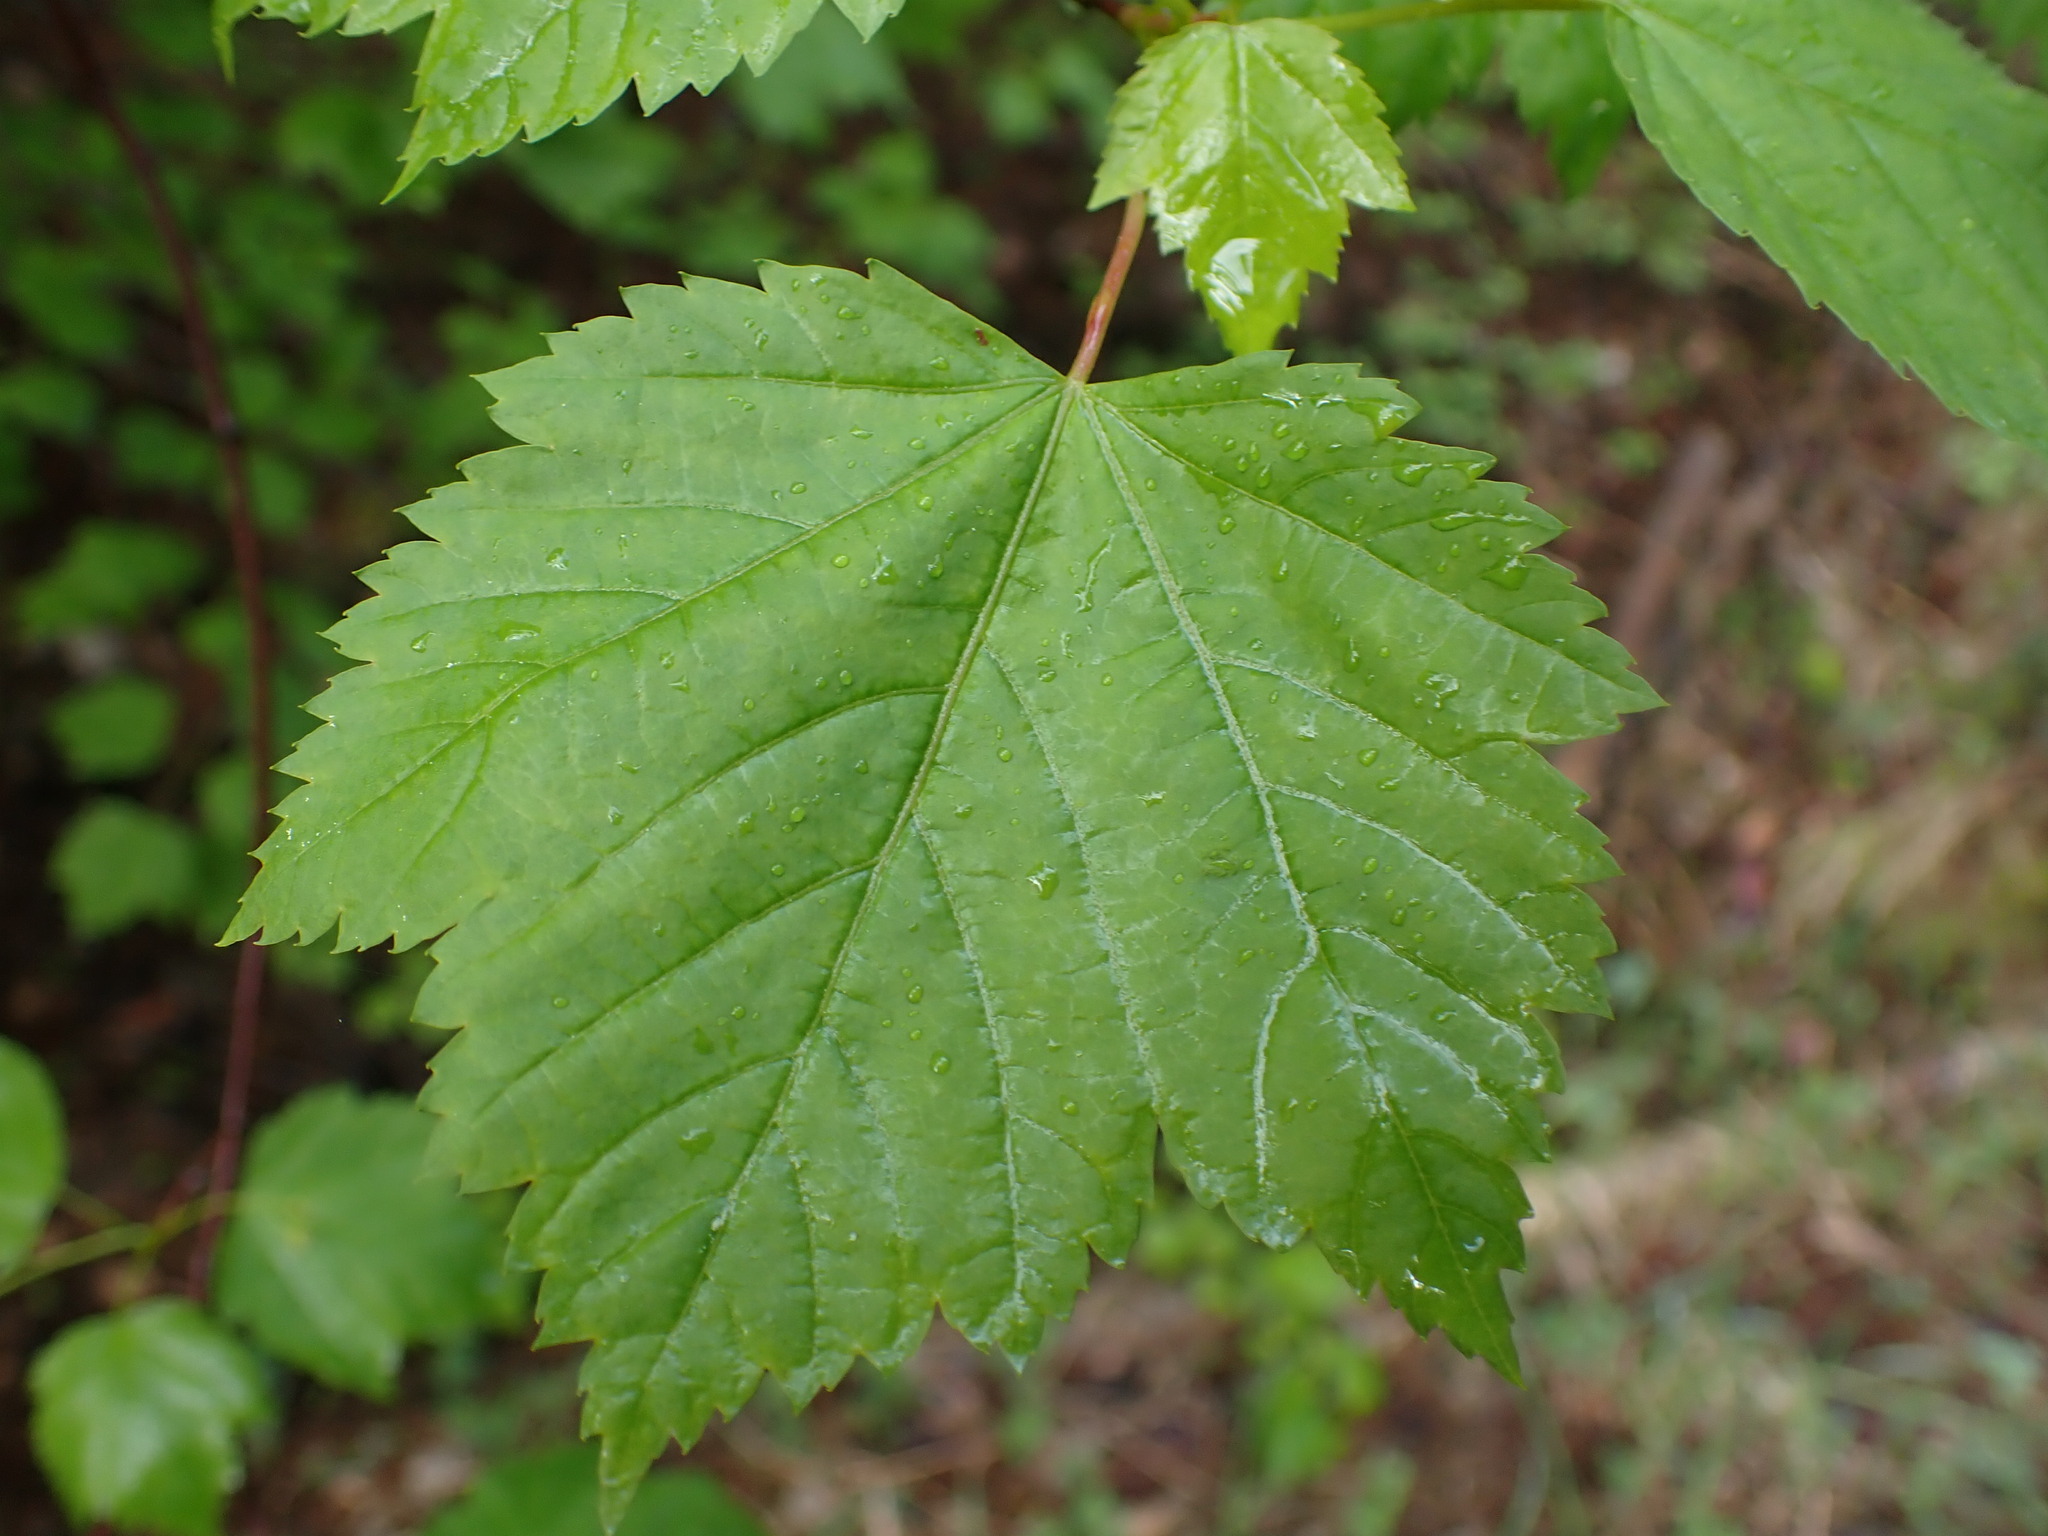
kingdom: Plantae
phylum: Tracheophyta
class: Magnoliopsida
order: Sapindales
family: Sapindaceae
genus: Acer
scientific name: Acer glabrum
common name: Rocky mountain maple
